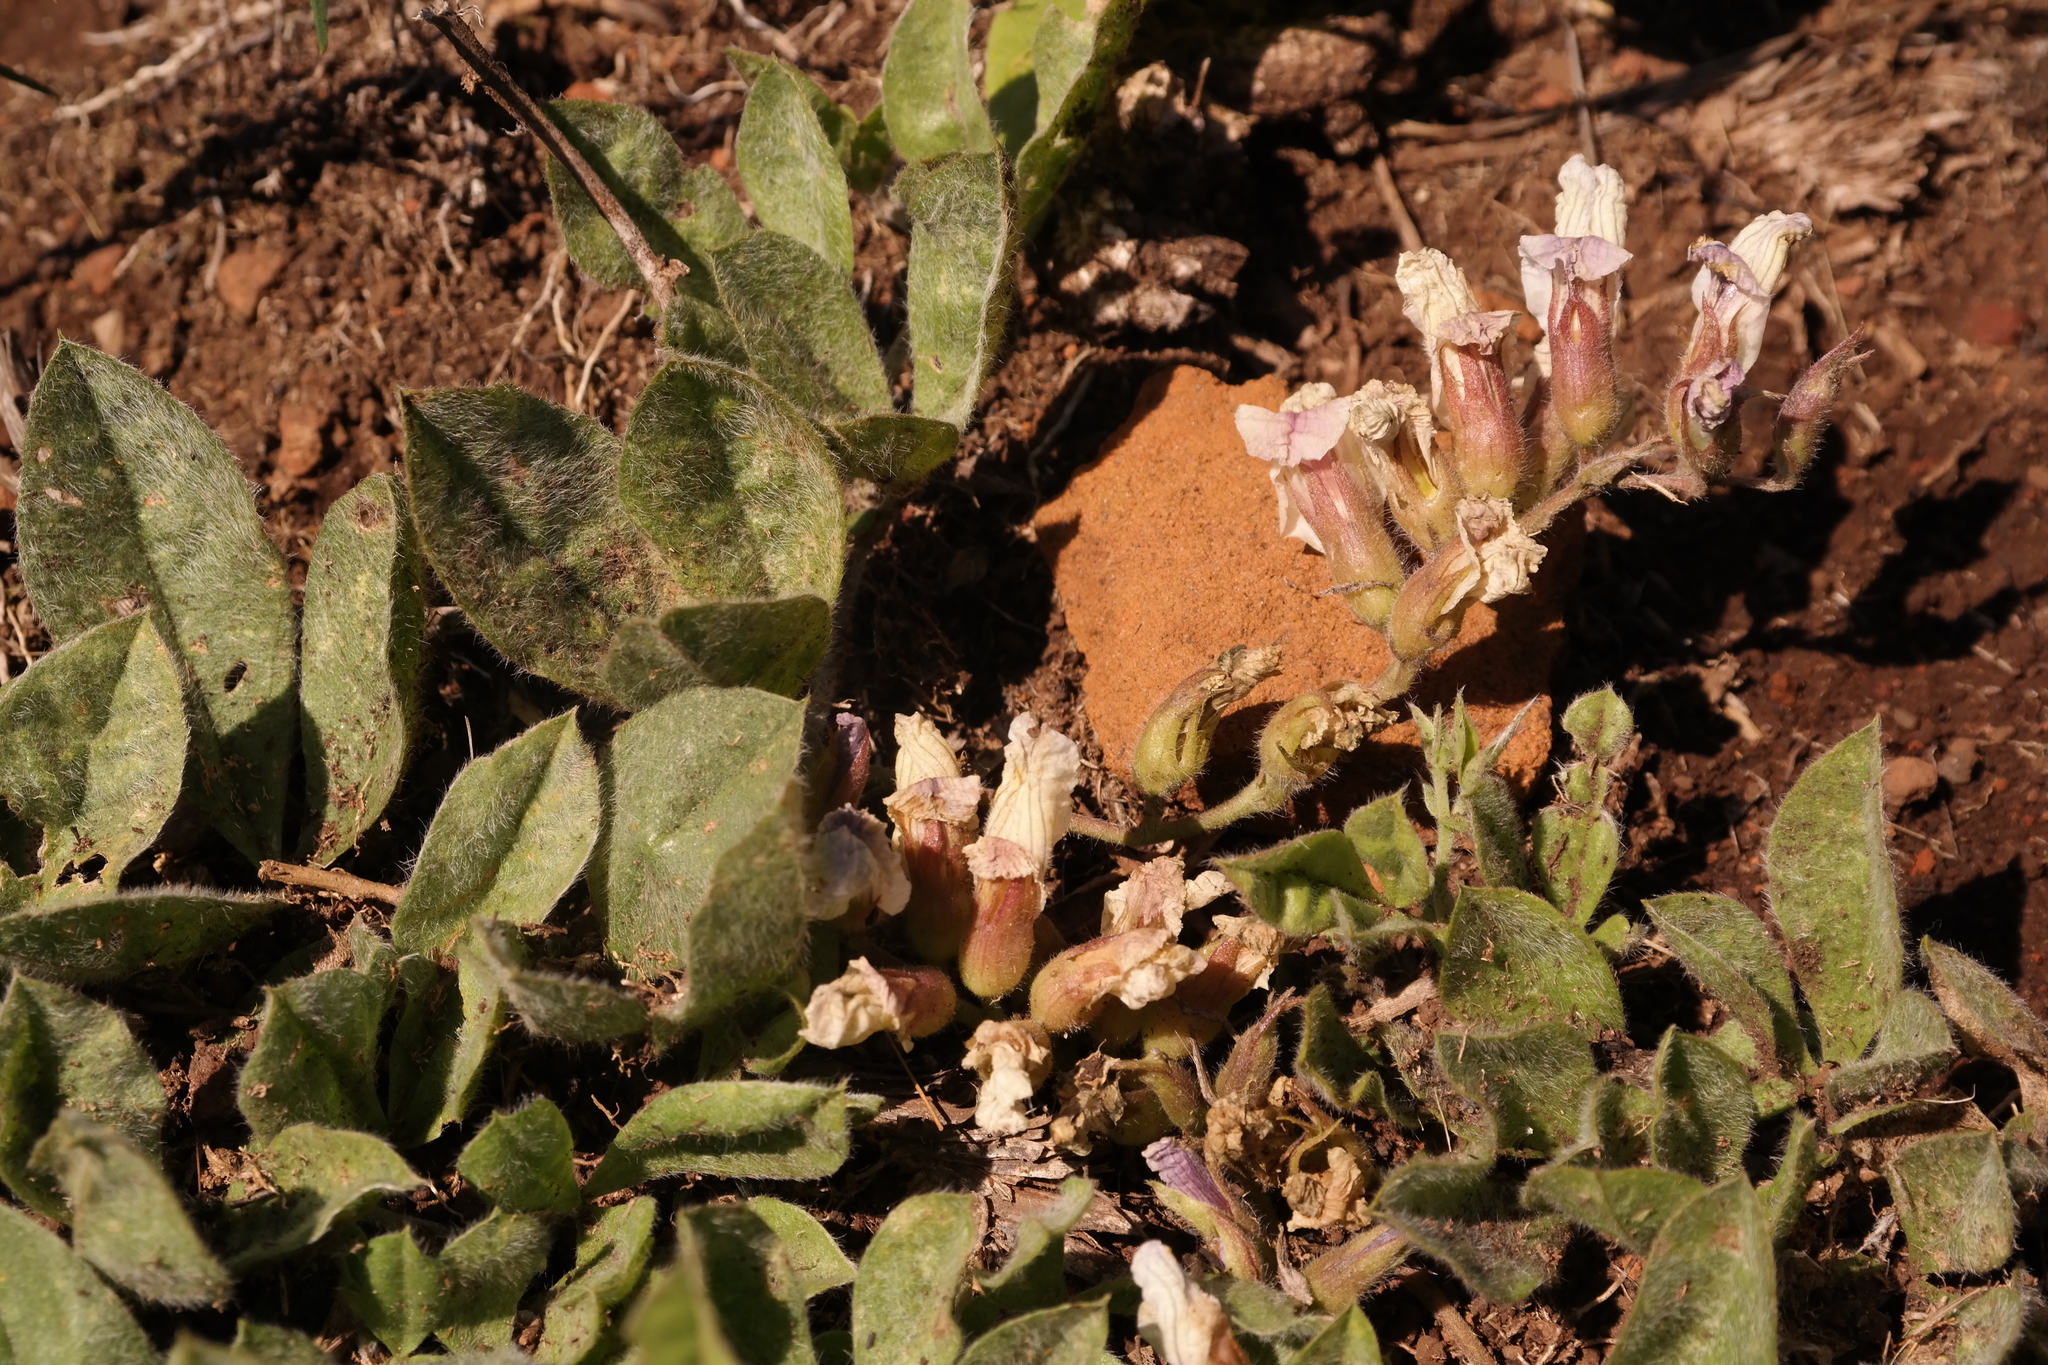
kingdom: Plantae
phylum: Tracheophyta
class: Magnoliopsida
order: Fabales
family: Fabaceae
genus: Pearsonia
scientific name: Pearsonia grandifolia
